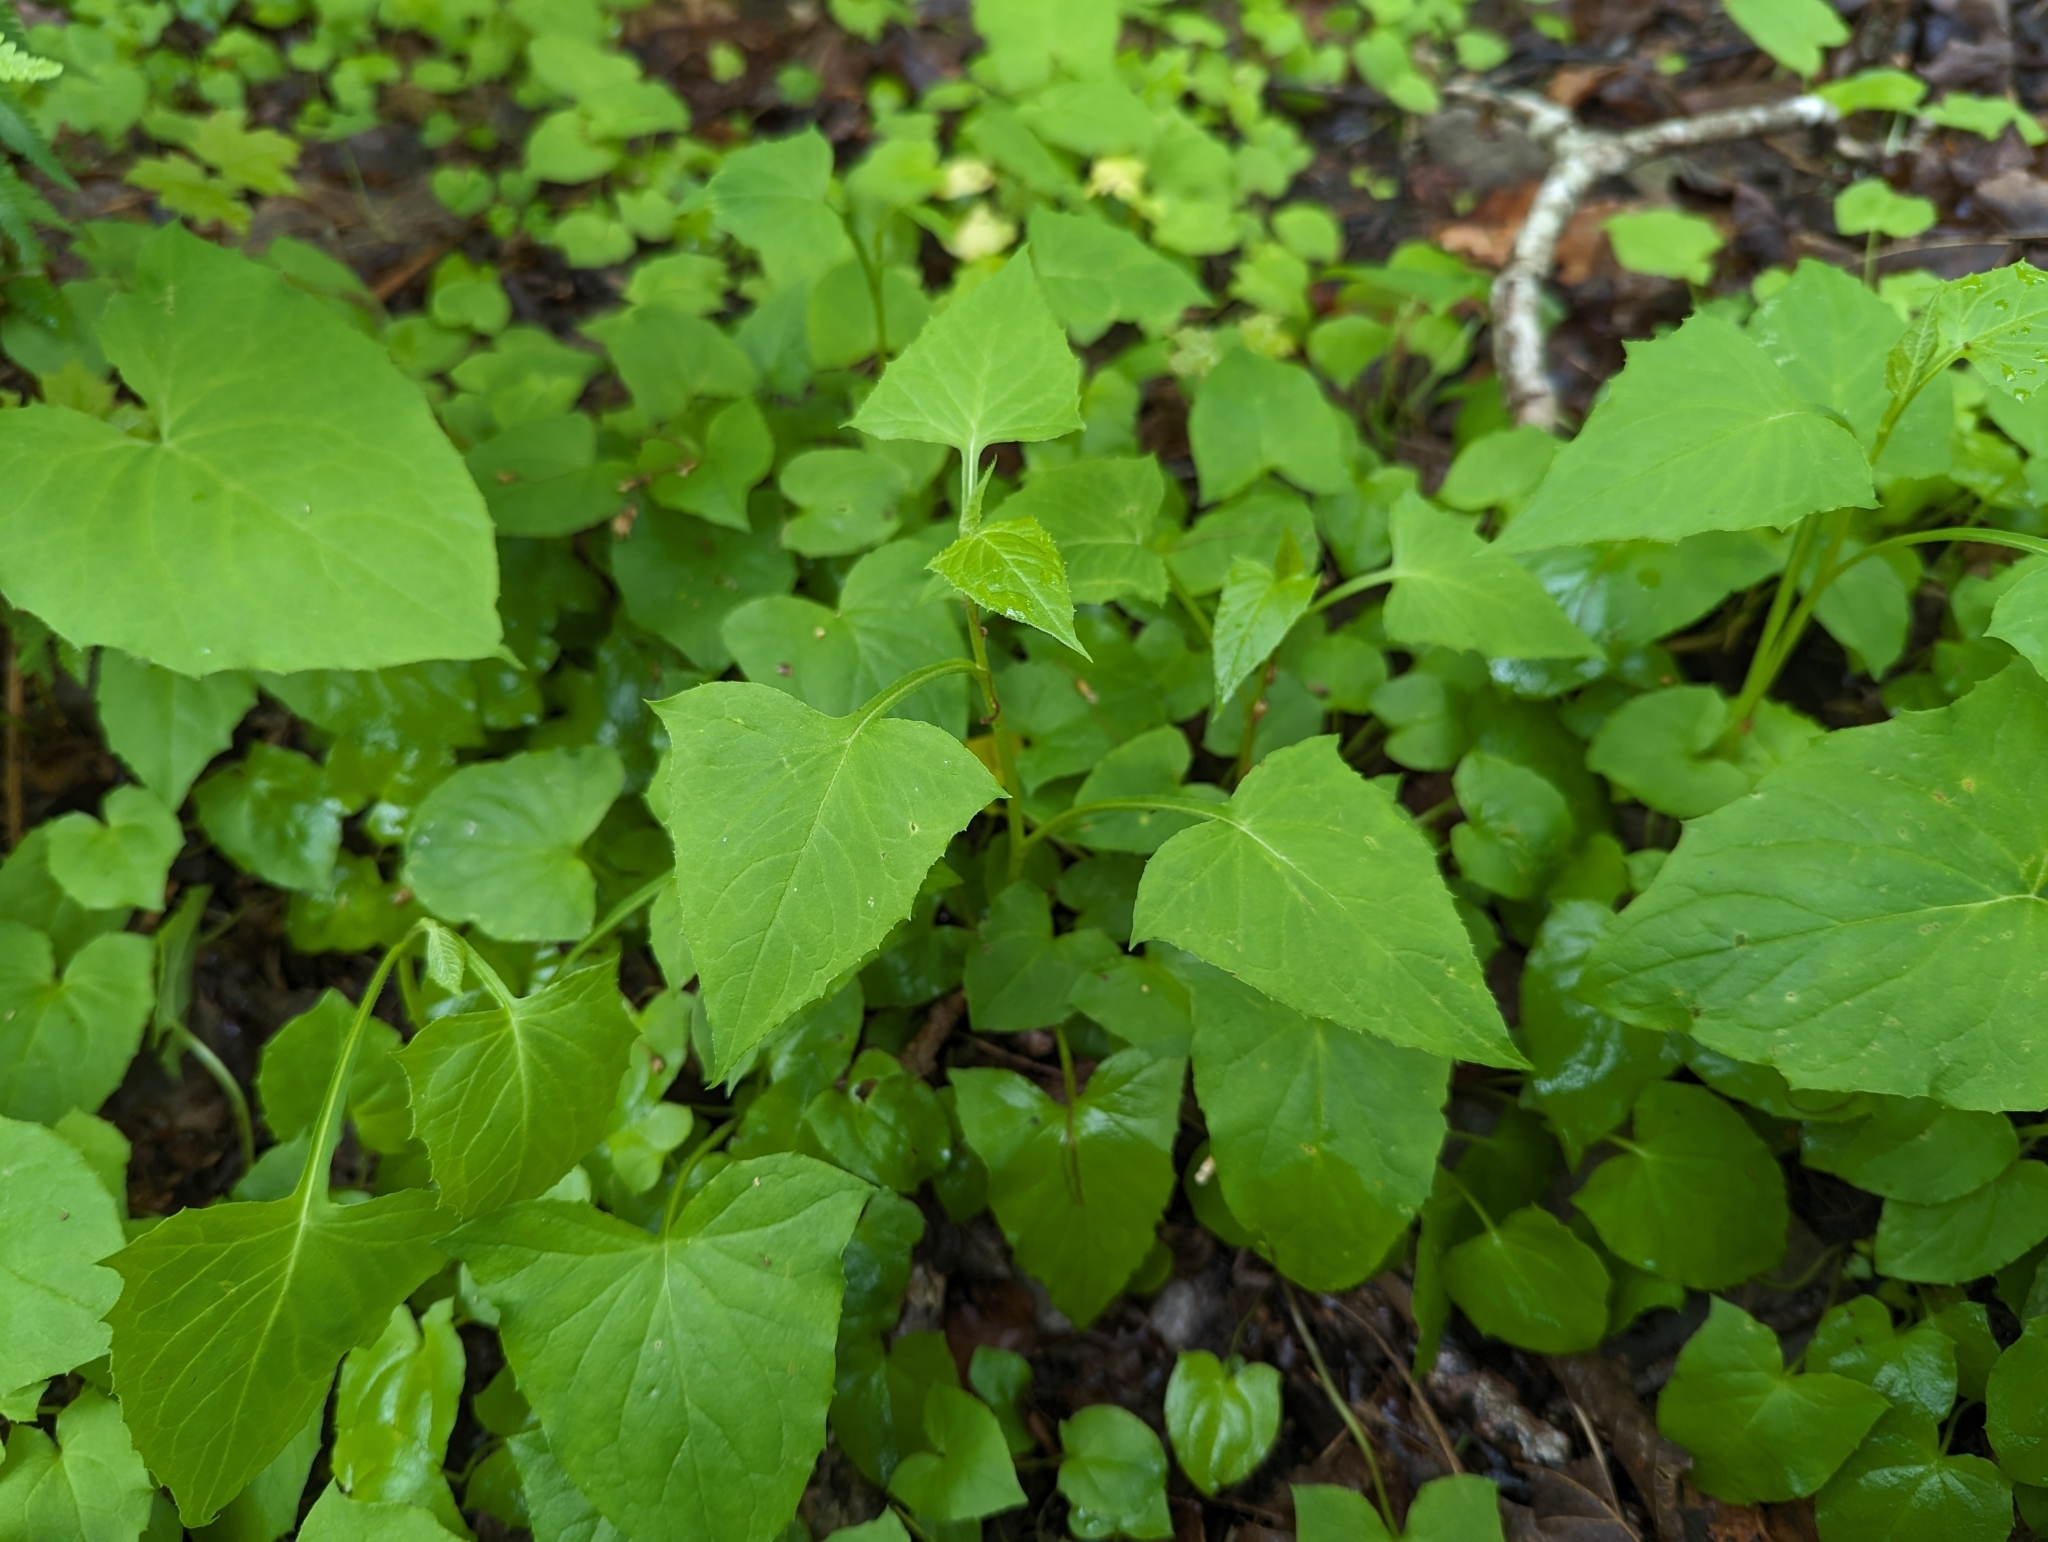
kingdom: Plantae
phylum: Tracheophyta
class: Magnoliopsida
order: Asterales
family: Asteraceae
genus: Nabalus
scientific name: Nabalus altissima
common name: Tall rattlesnakeroot
